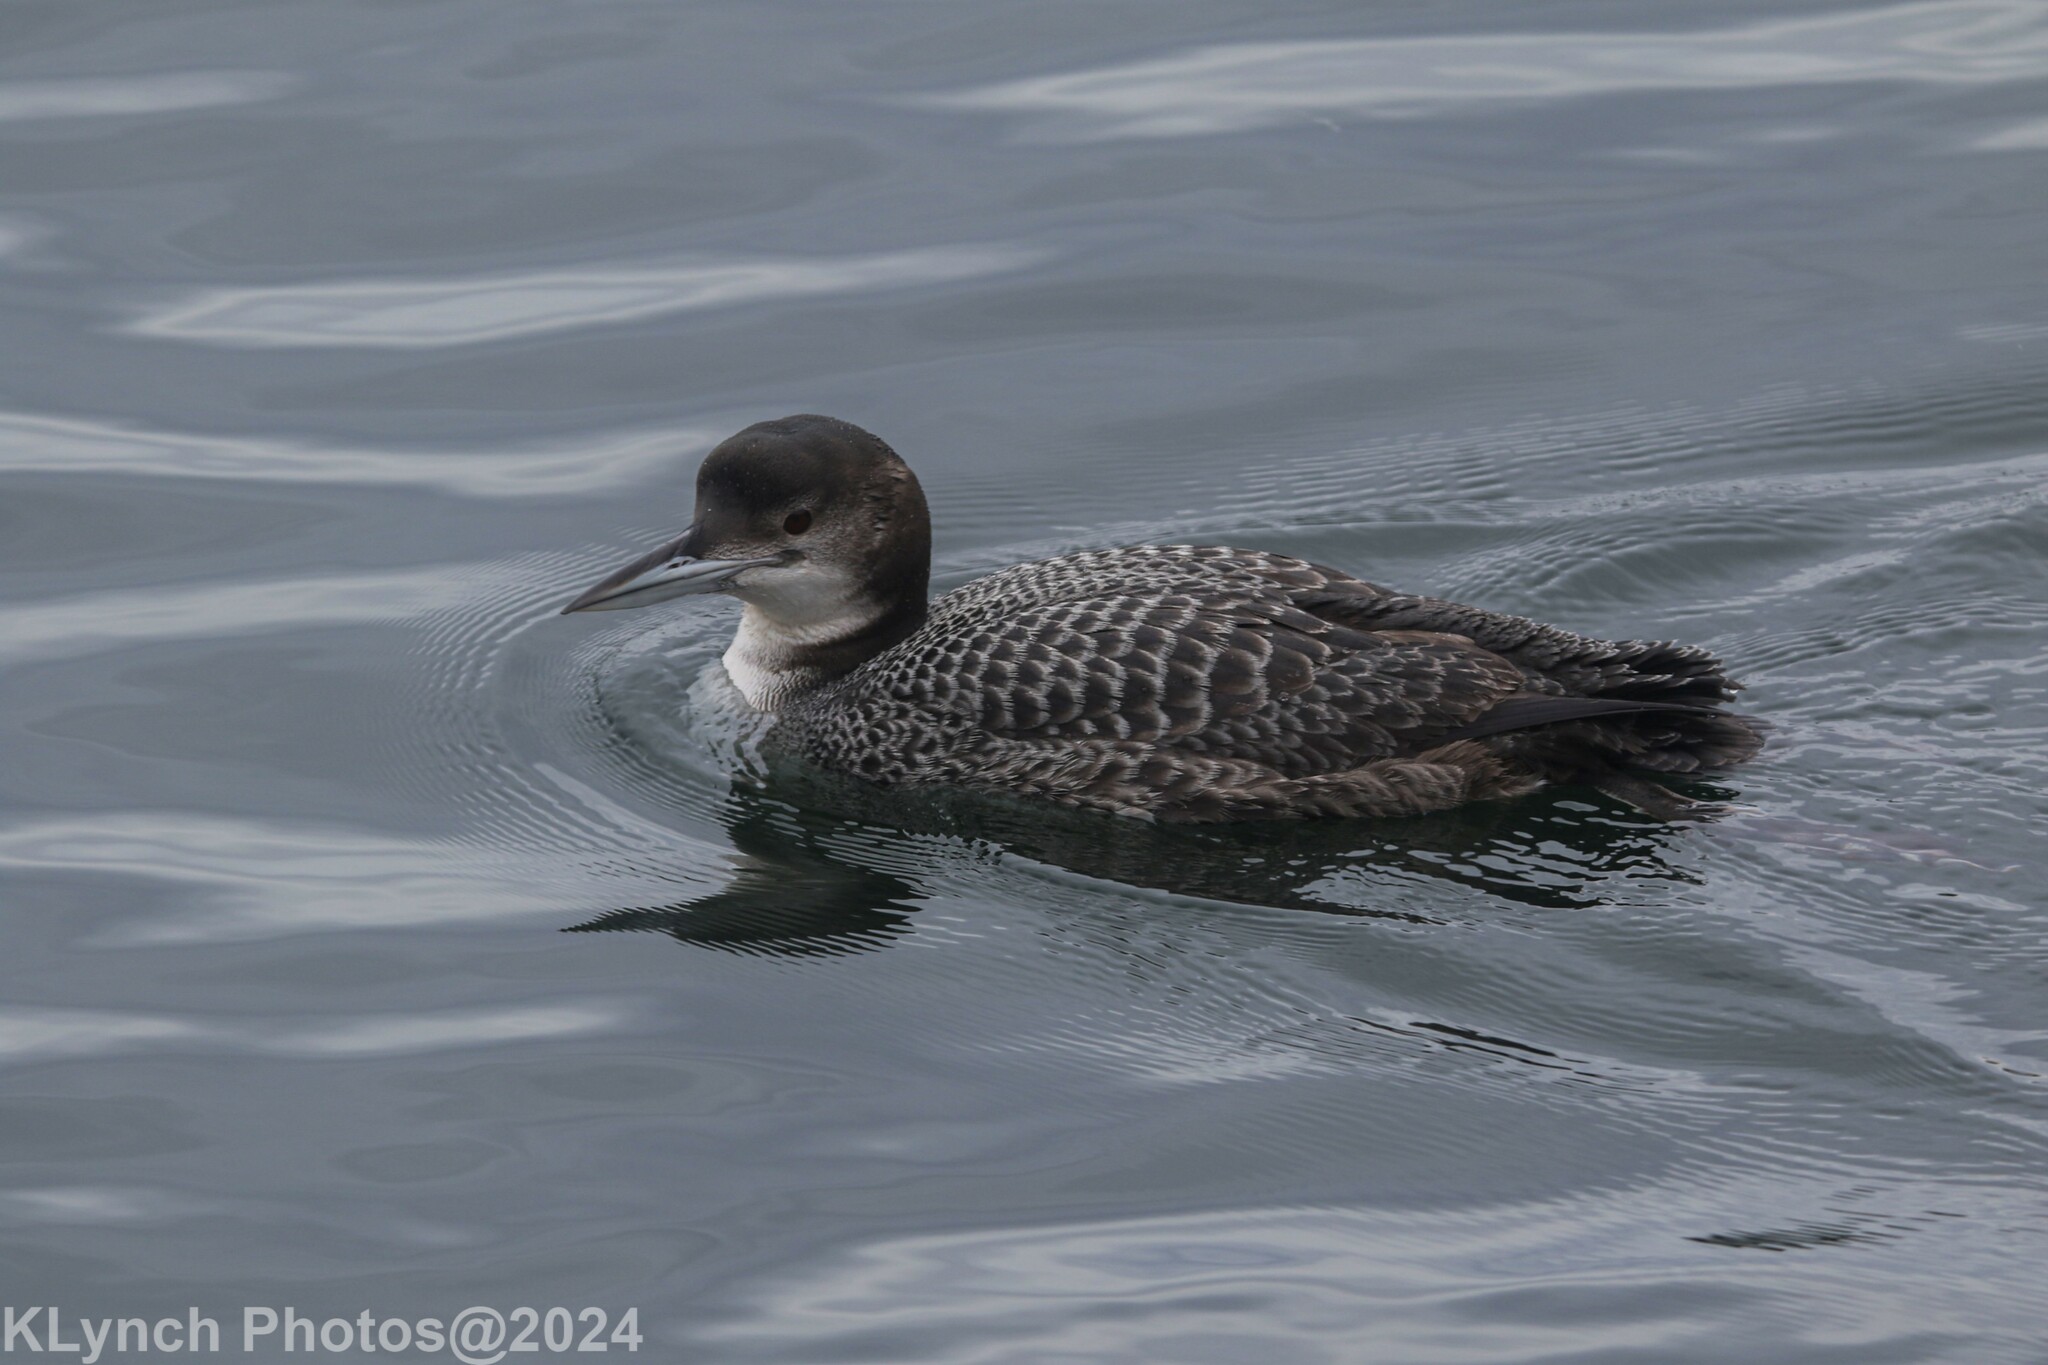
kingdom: Animalia
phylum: Chordata
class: Aves
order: Gaviiformes
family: Gaviidae
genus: Gavia
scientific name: Gavia immer
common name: Common loon
